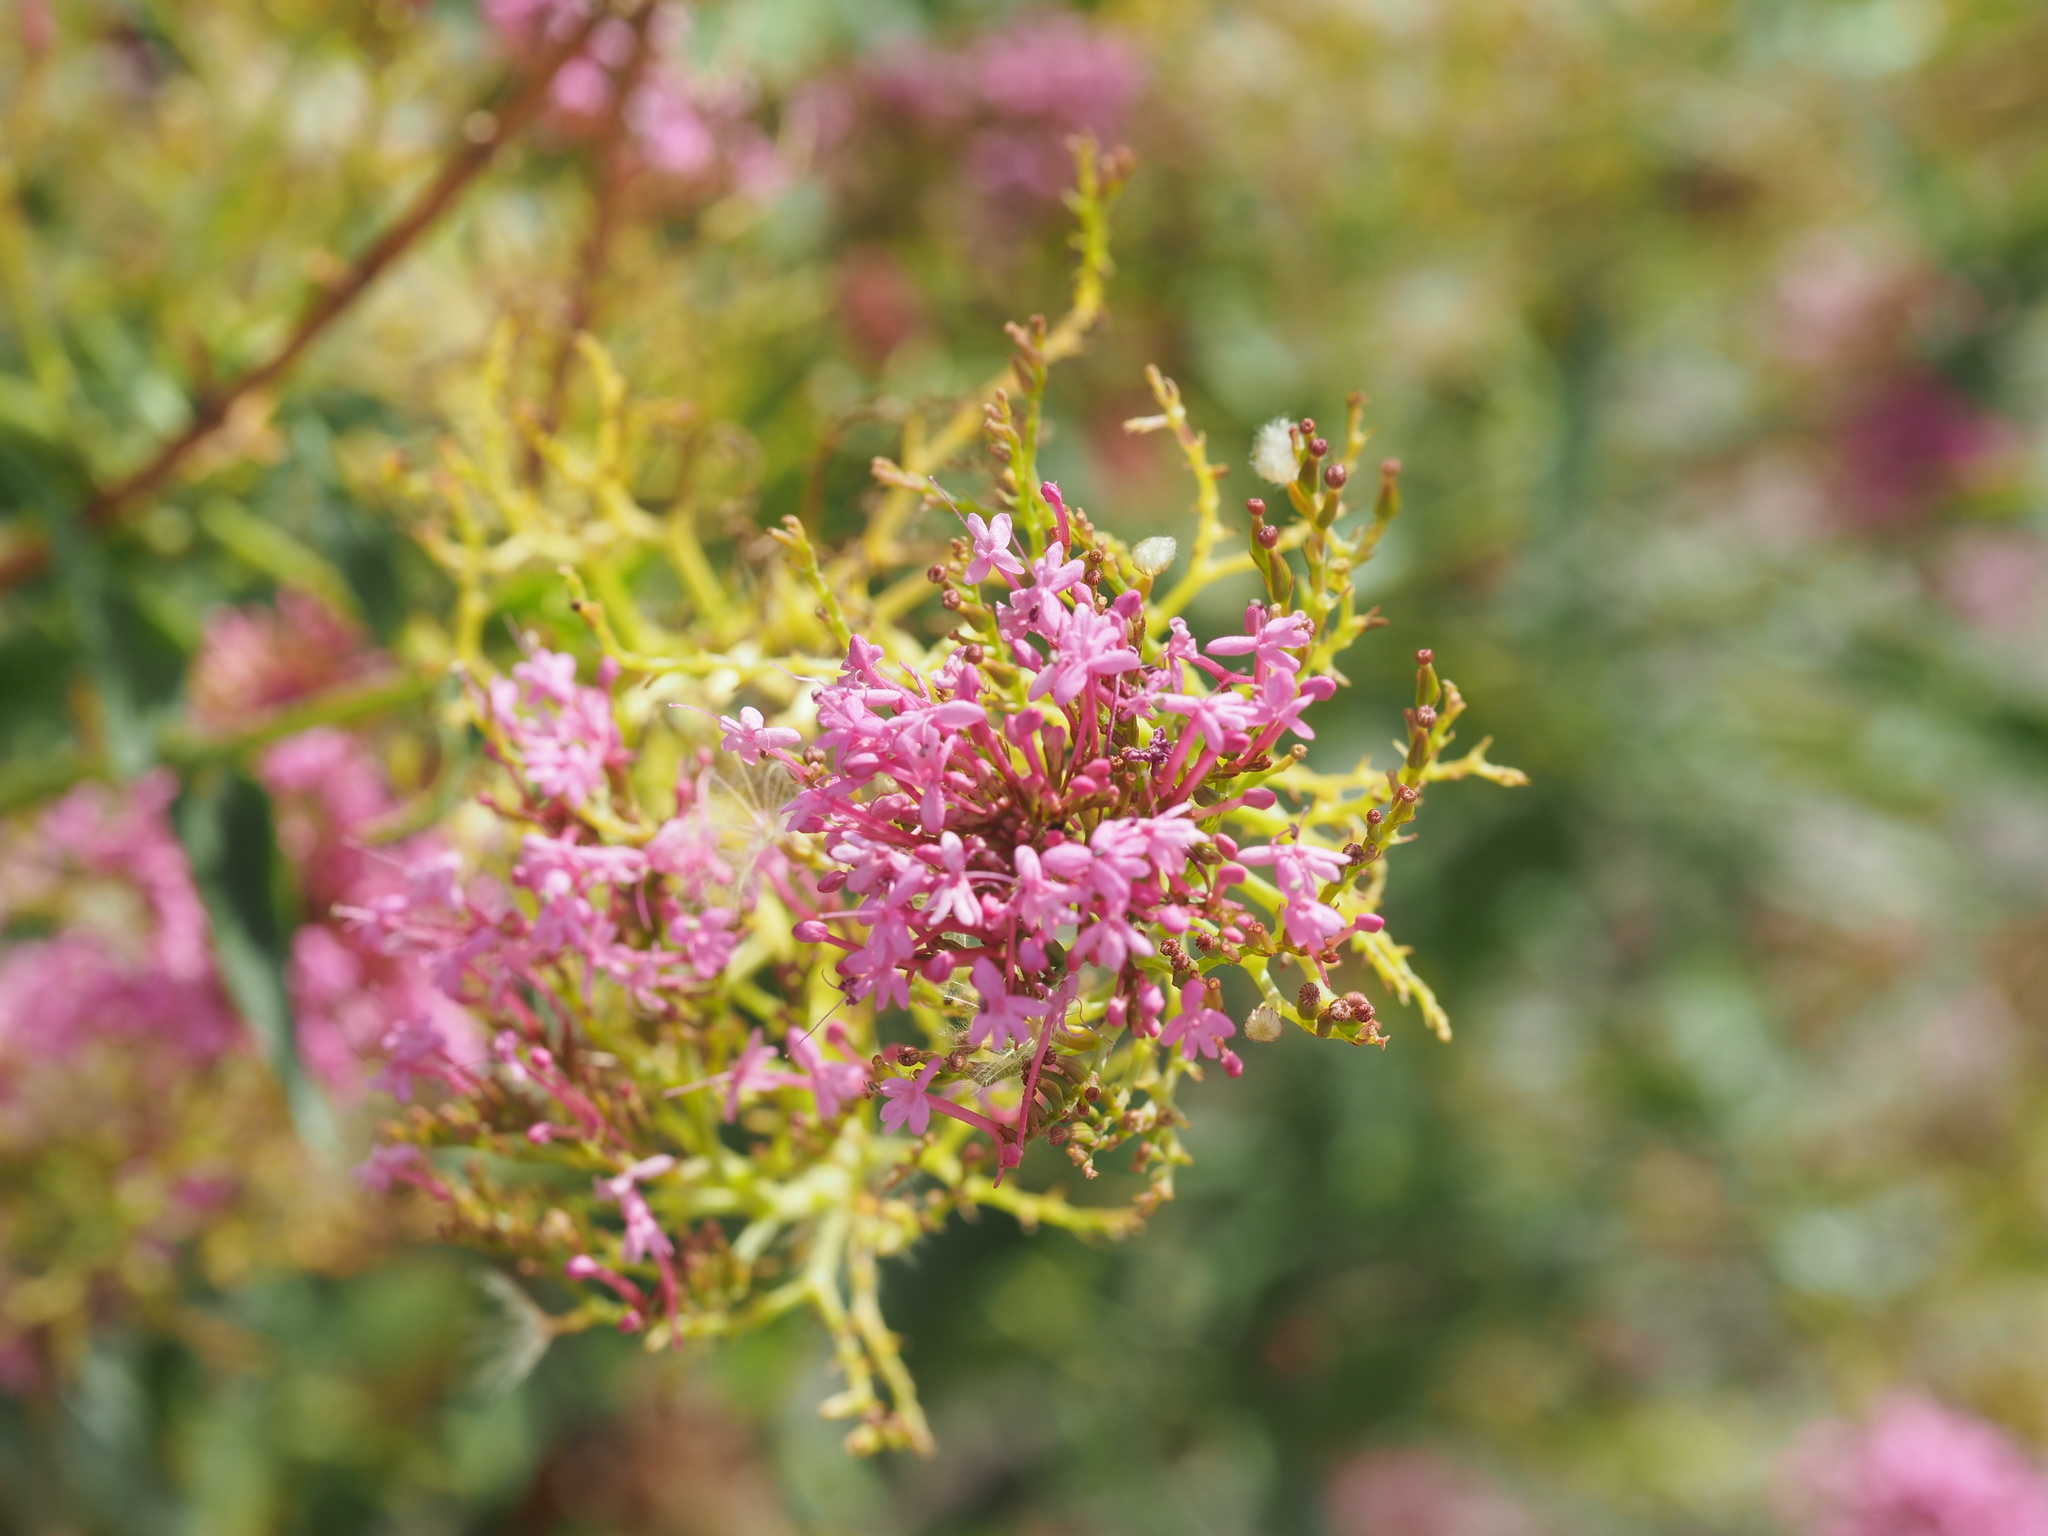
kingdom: Plantae
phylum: Tracheophyta
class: Magnoliopsida
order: Dipsacales
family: Caprifoliaceae
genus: Centranthus
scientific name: Centranthus ruber
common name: Red valerian
